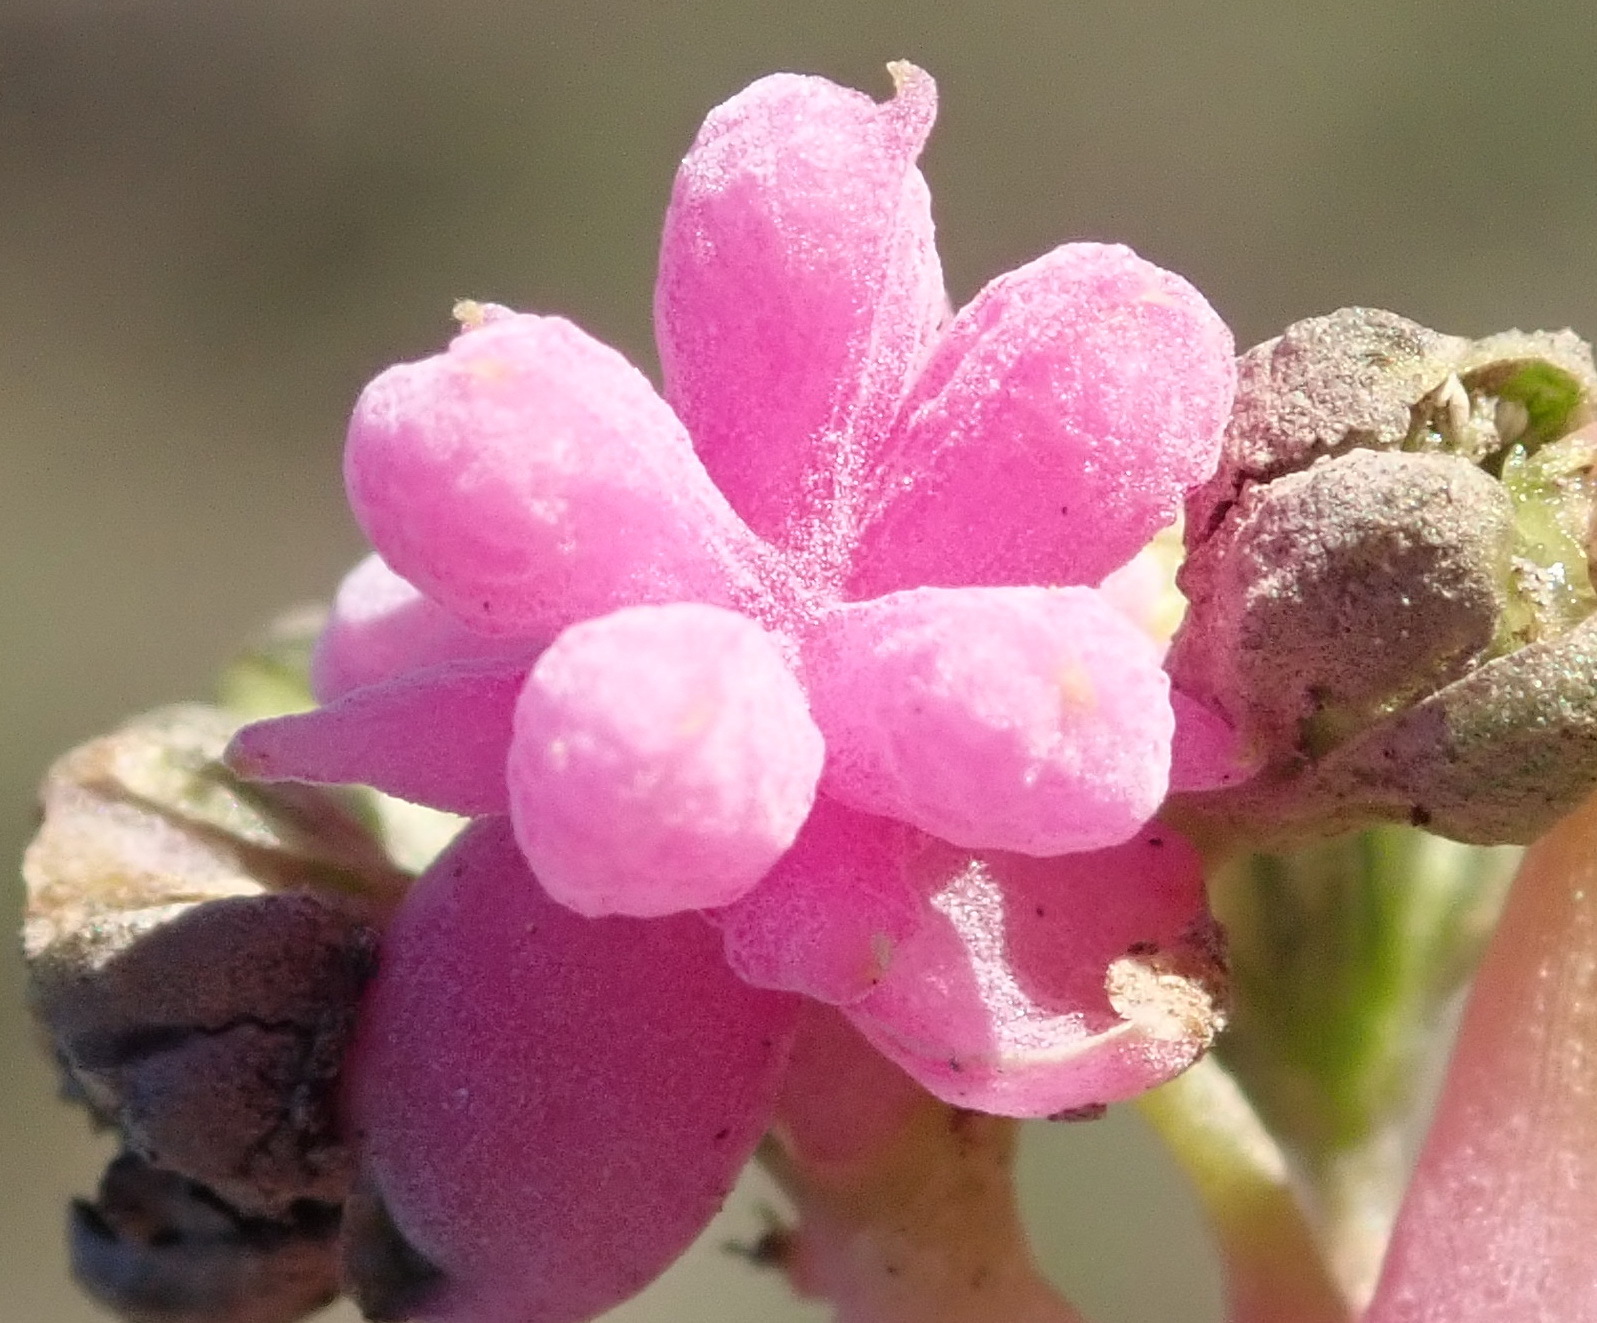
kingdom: Plantae
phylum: Tracheophyta
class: Magnoliopsida
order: Caryophyllales
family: Gisekiaceae
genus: Gisekia
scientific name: Gisekia pharnaceoides
